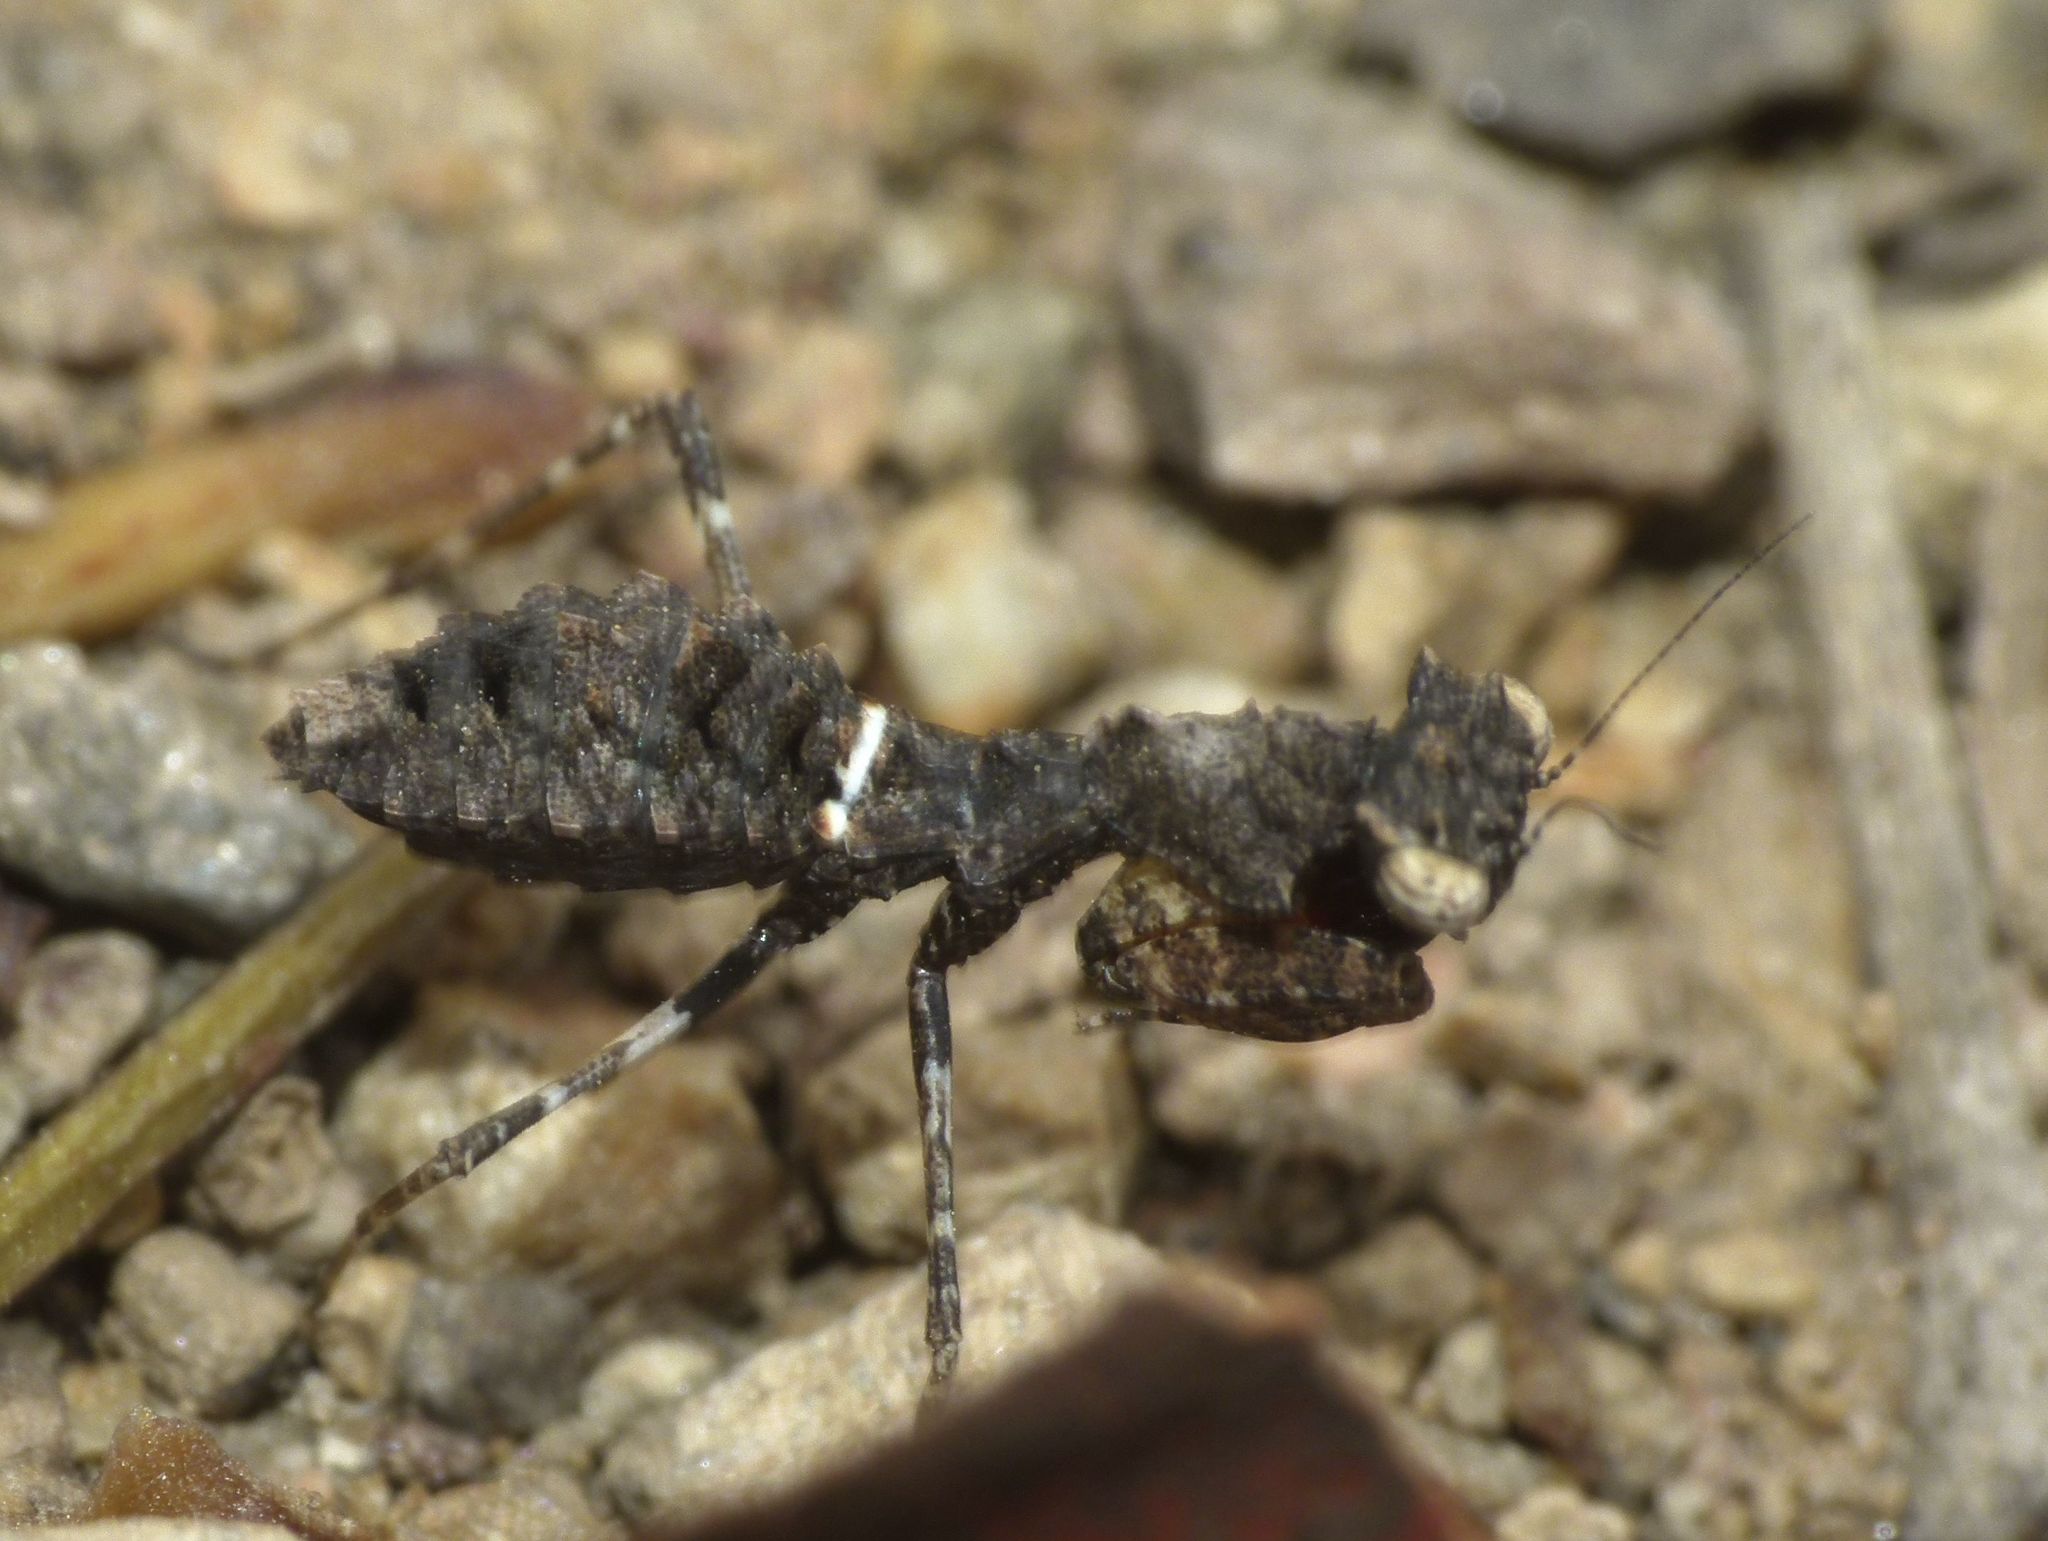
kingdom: Animalia
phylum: Arthropoda
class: Insecta
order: Mantodea
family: Nanomantidae
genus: Paraoxypilus
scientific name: Paraoxypilus tasmaniensis
